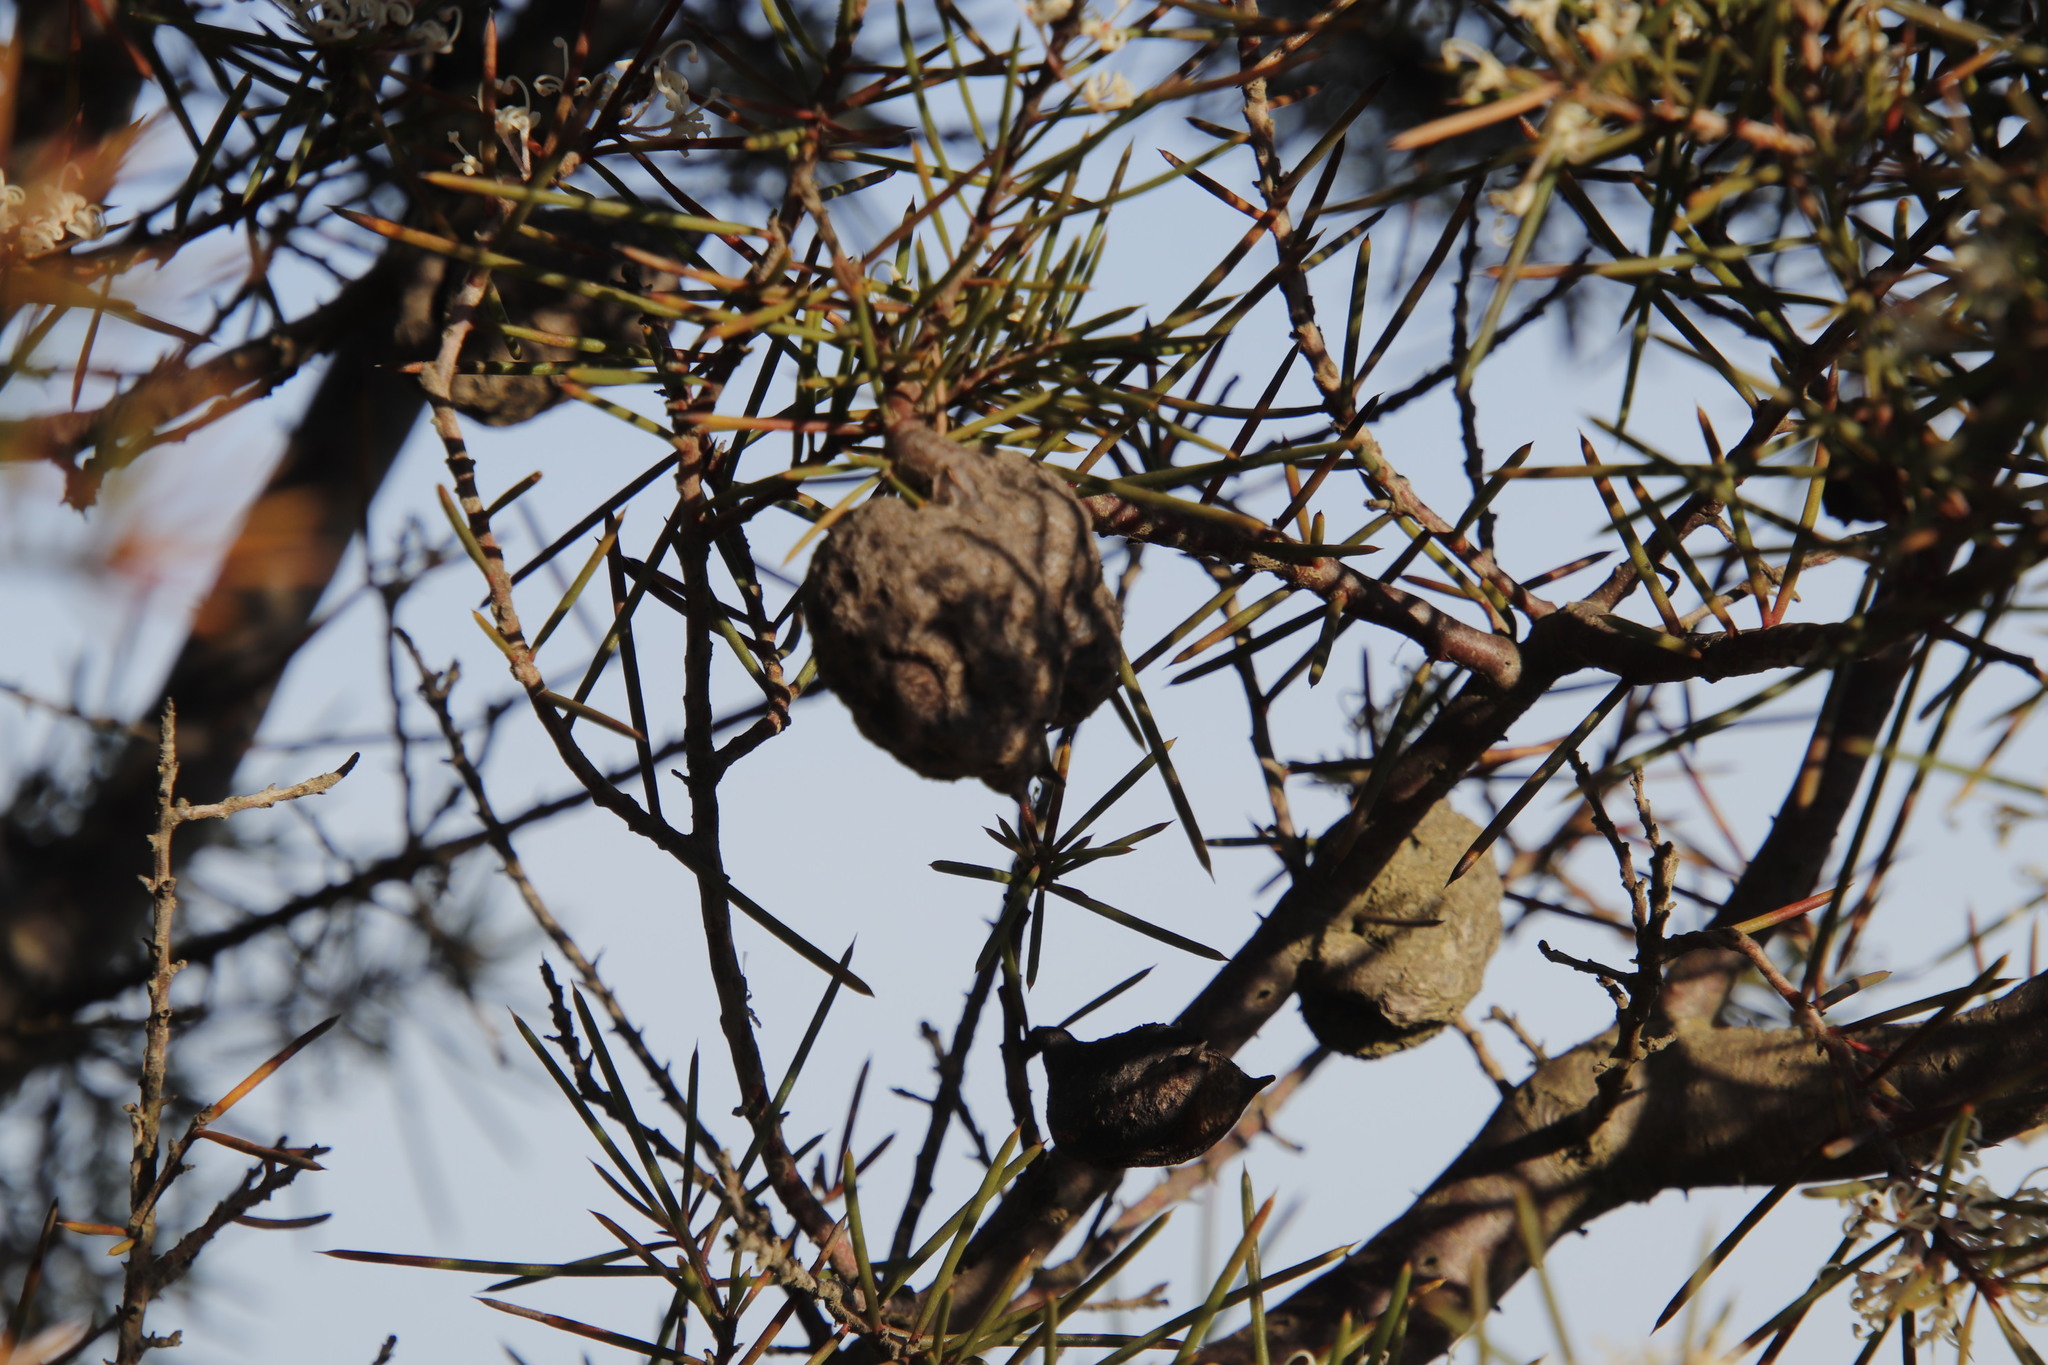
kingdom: Plantae
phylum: Tracheophyta
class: Magnoliopsida
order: Proteales
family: Proteaceae
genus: Hakea
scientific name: Hakea sericea
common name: Needle bush
